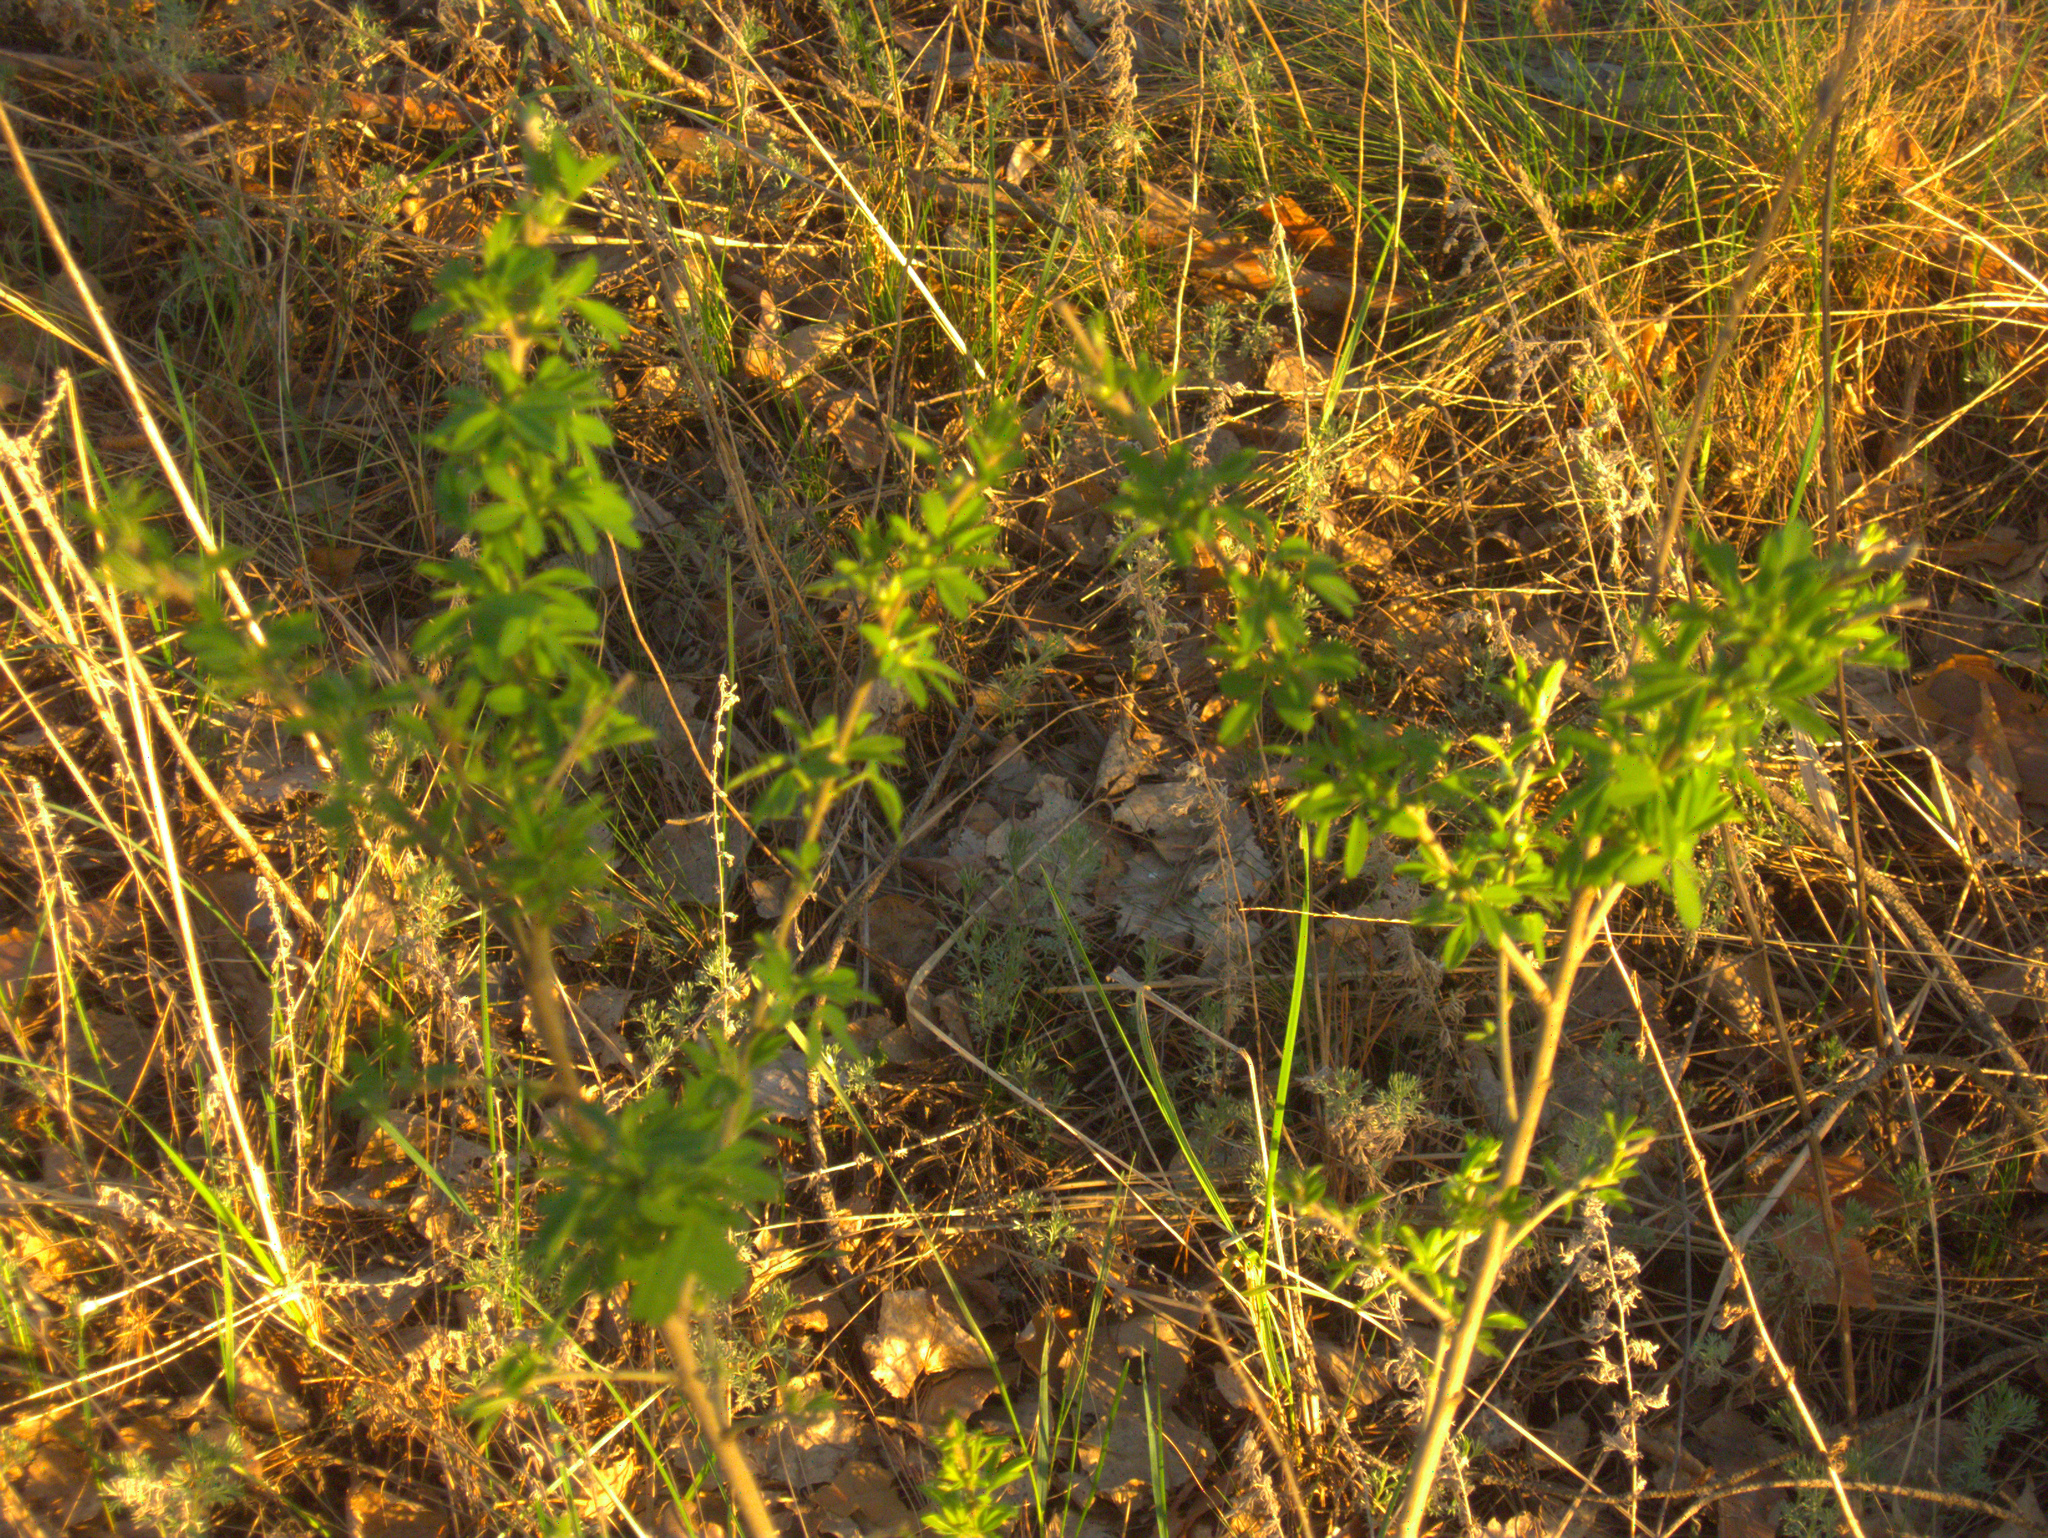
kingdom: Plantae
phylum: Tracheophyta
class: Magnoliopsida
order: Fabales
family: Fabaceae
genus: Chamaecytisus
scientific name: Chamaecytisus ruthenicus
